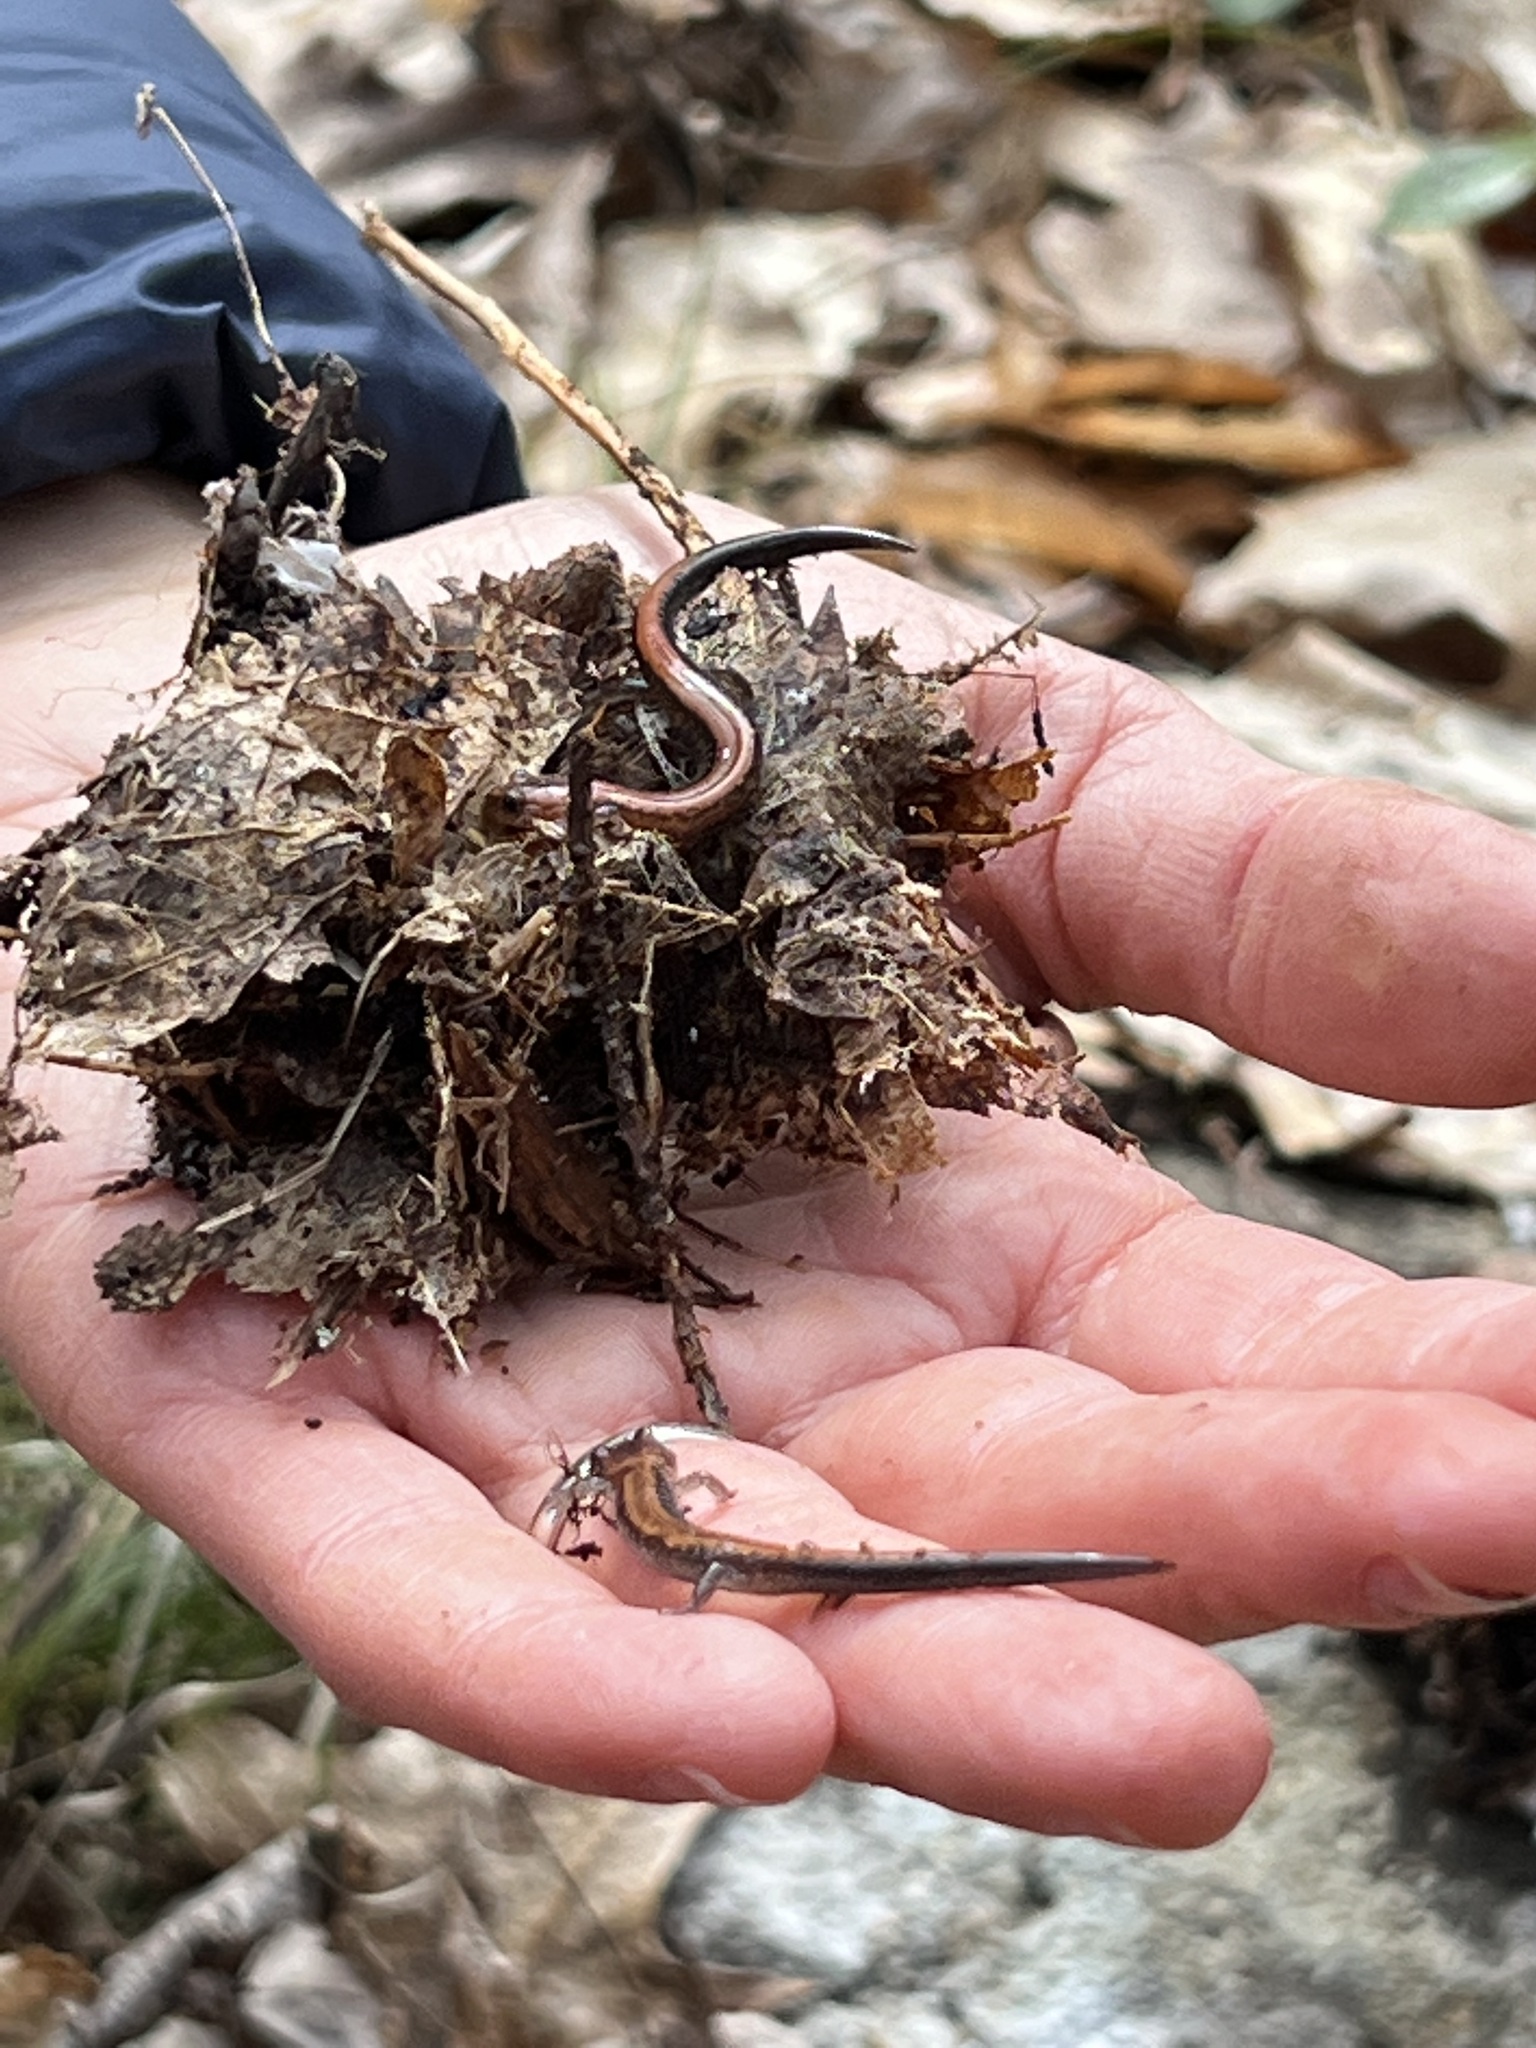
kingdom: Animalia
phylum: Chordata
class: Amphibia
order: Caudata
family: Plethodontidae
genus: Plethodon
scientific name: Plethodon cinereus
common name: Redback salamander
